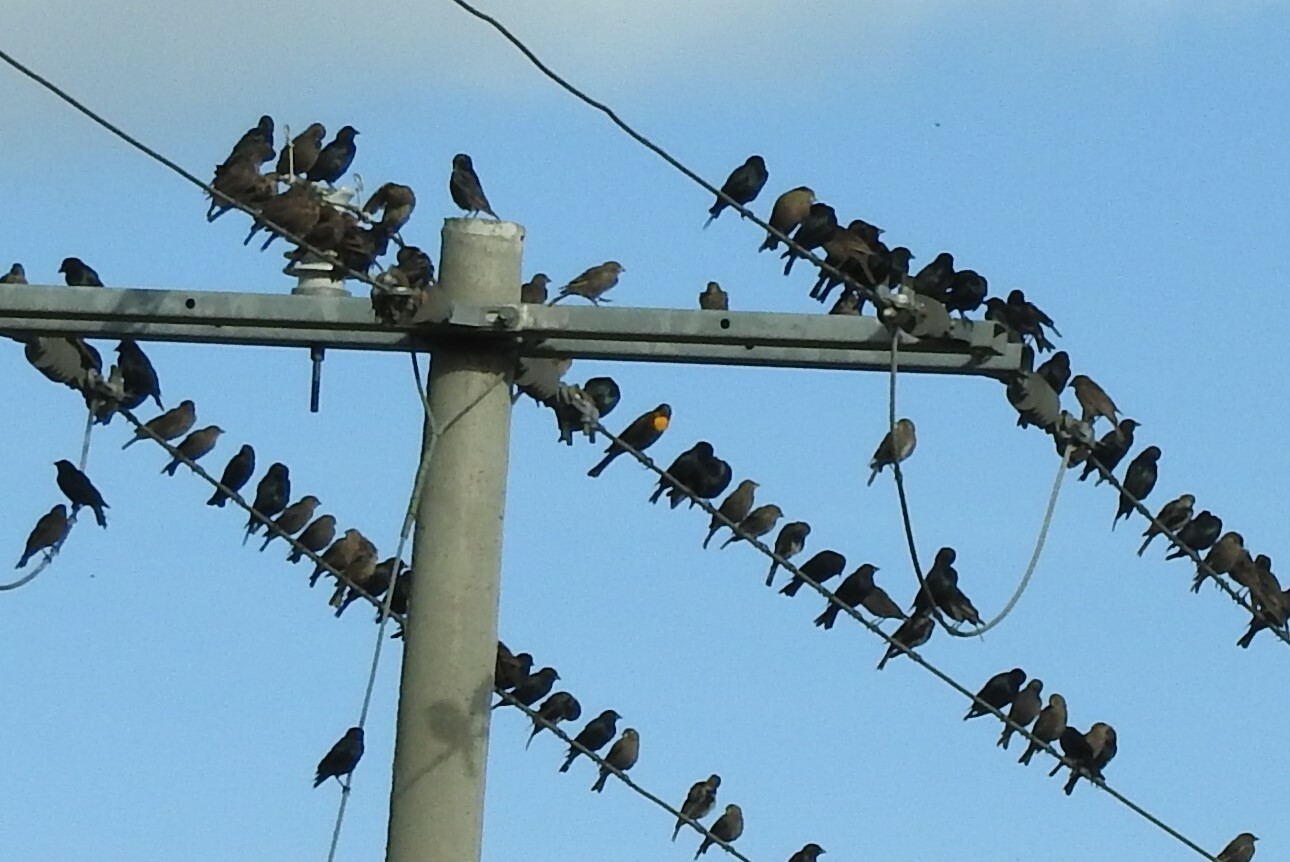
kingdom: Animalia
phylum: Chordata
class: Aves
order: Passeriformes
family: Icteridae
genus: Molothrus
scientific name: Molothrus aeneus
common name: Bronzed cowbird
